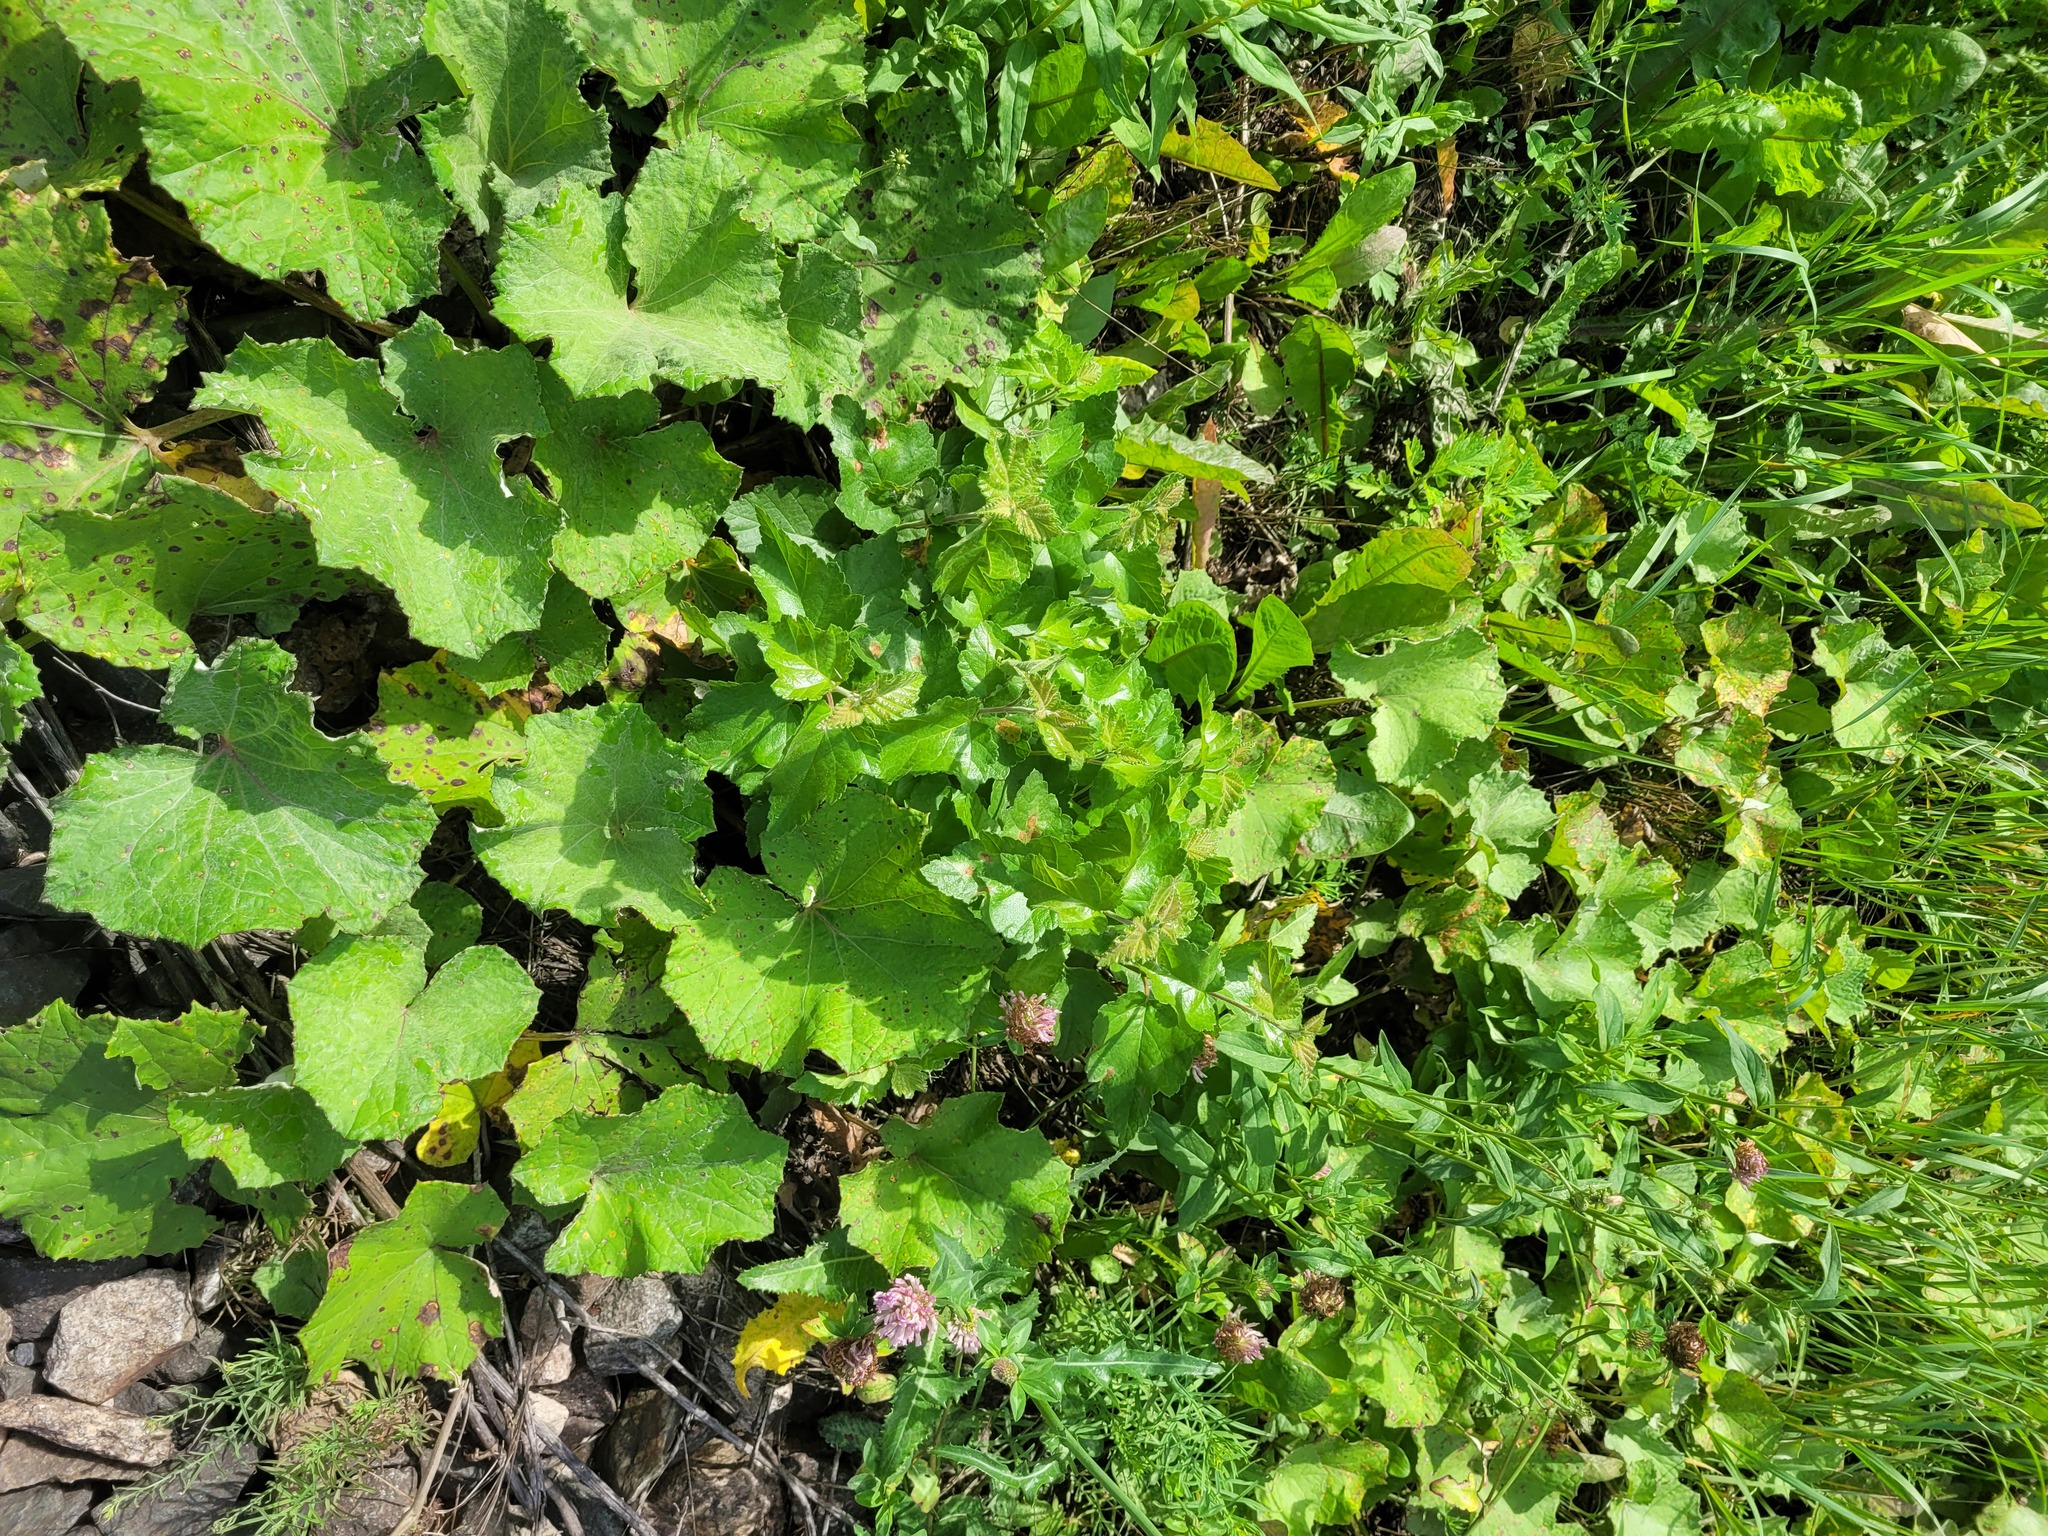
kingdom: Plantae
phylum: Tracheophyta
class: Magnoliopsida
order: Fagales
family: Betulaceae
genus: Betula
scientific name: Betula pubescens
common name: Downy birch
